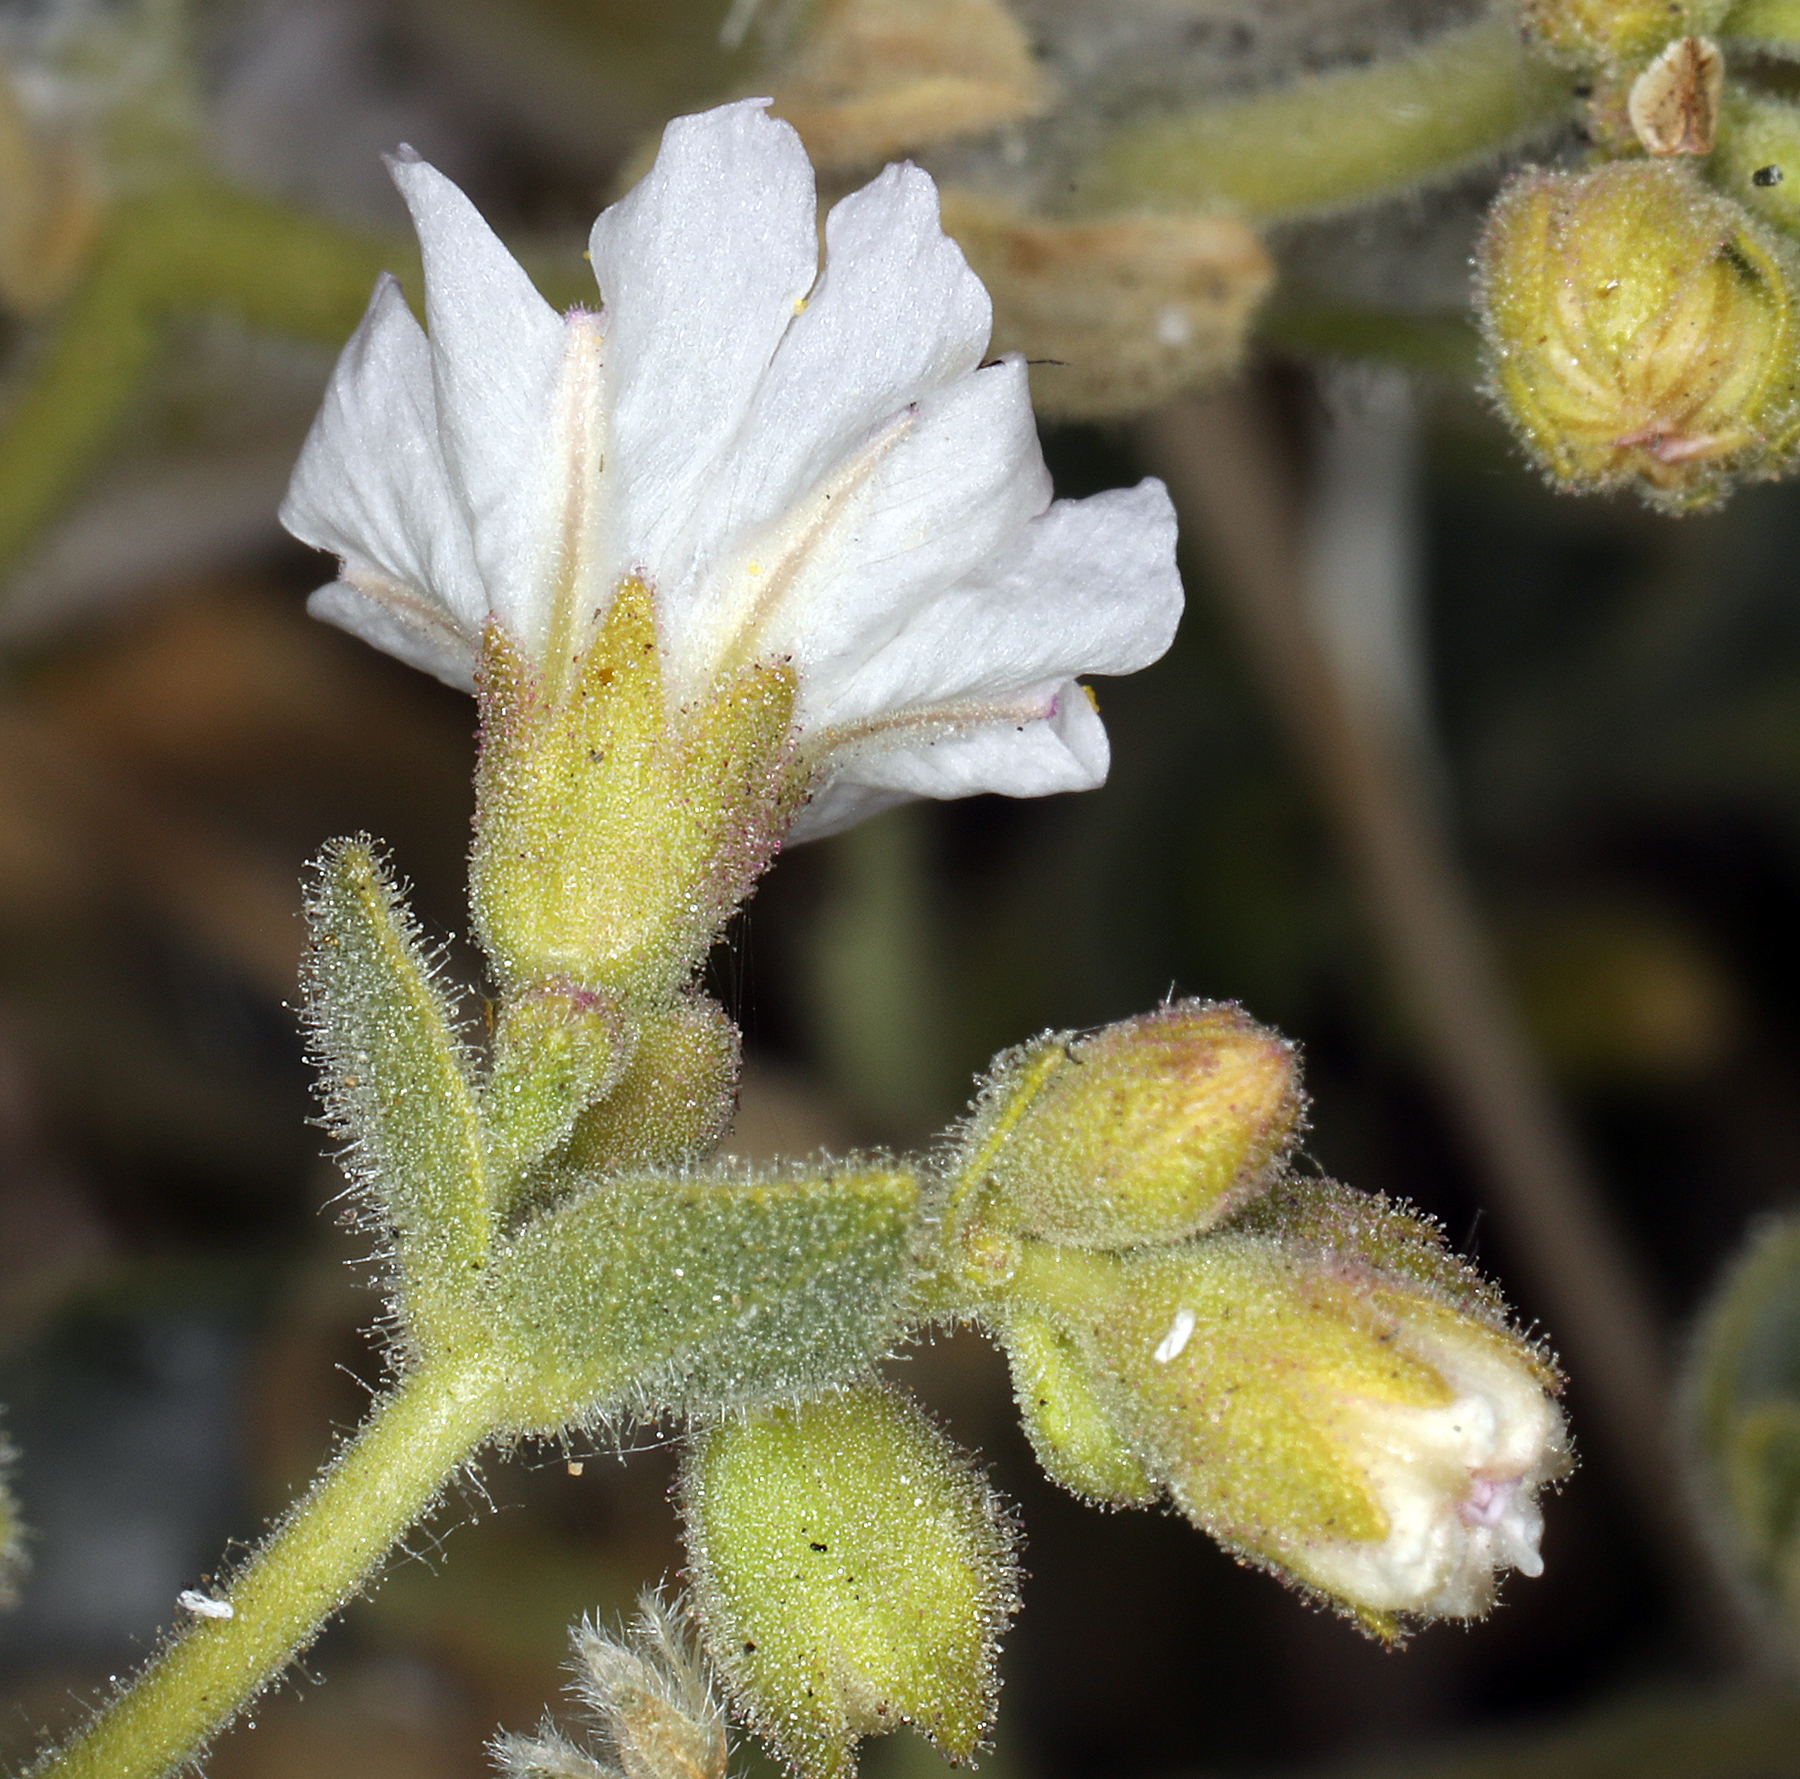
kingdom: Plantae
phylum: Tracheophyta
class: Magnoliopsida
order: Caryophyllales
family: Nyctaginaceae
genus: Mirabilis
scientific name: Mirabilis laevis
